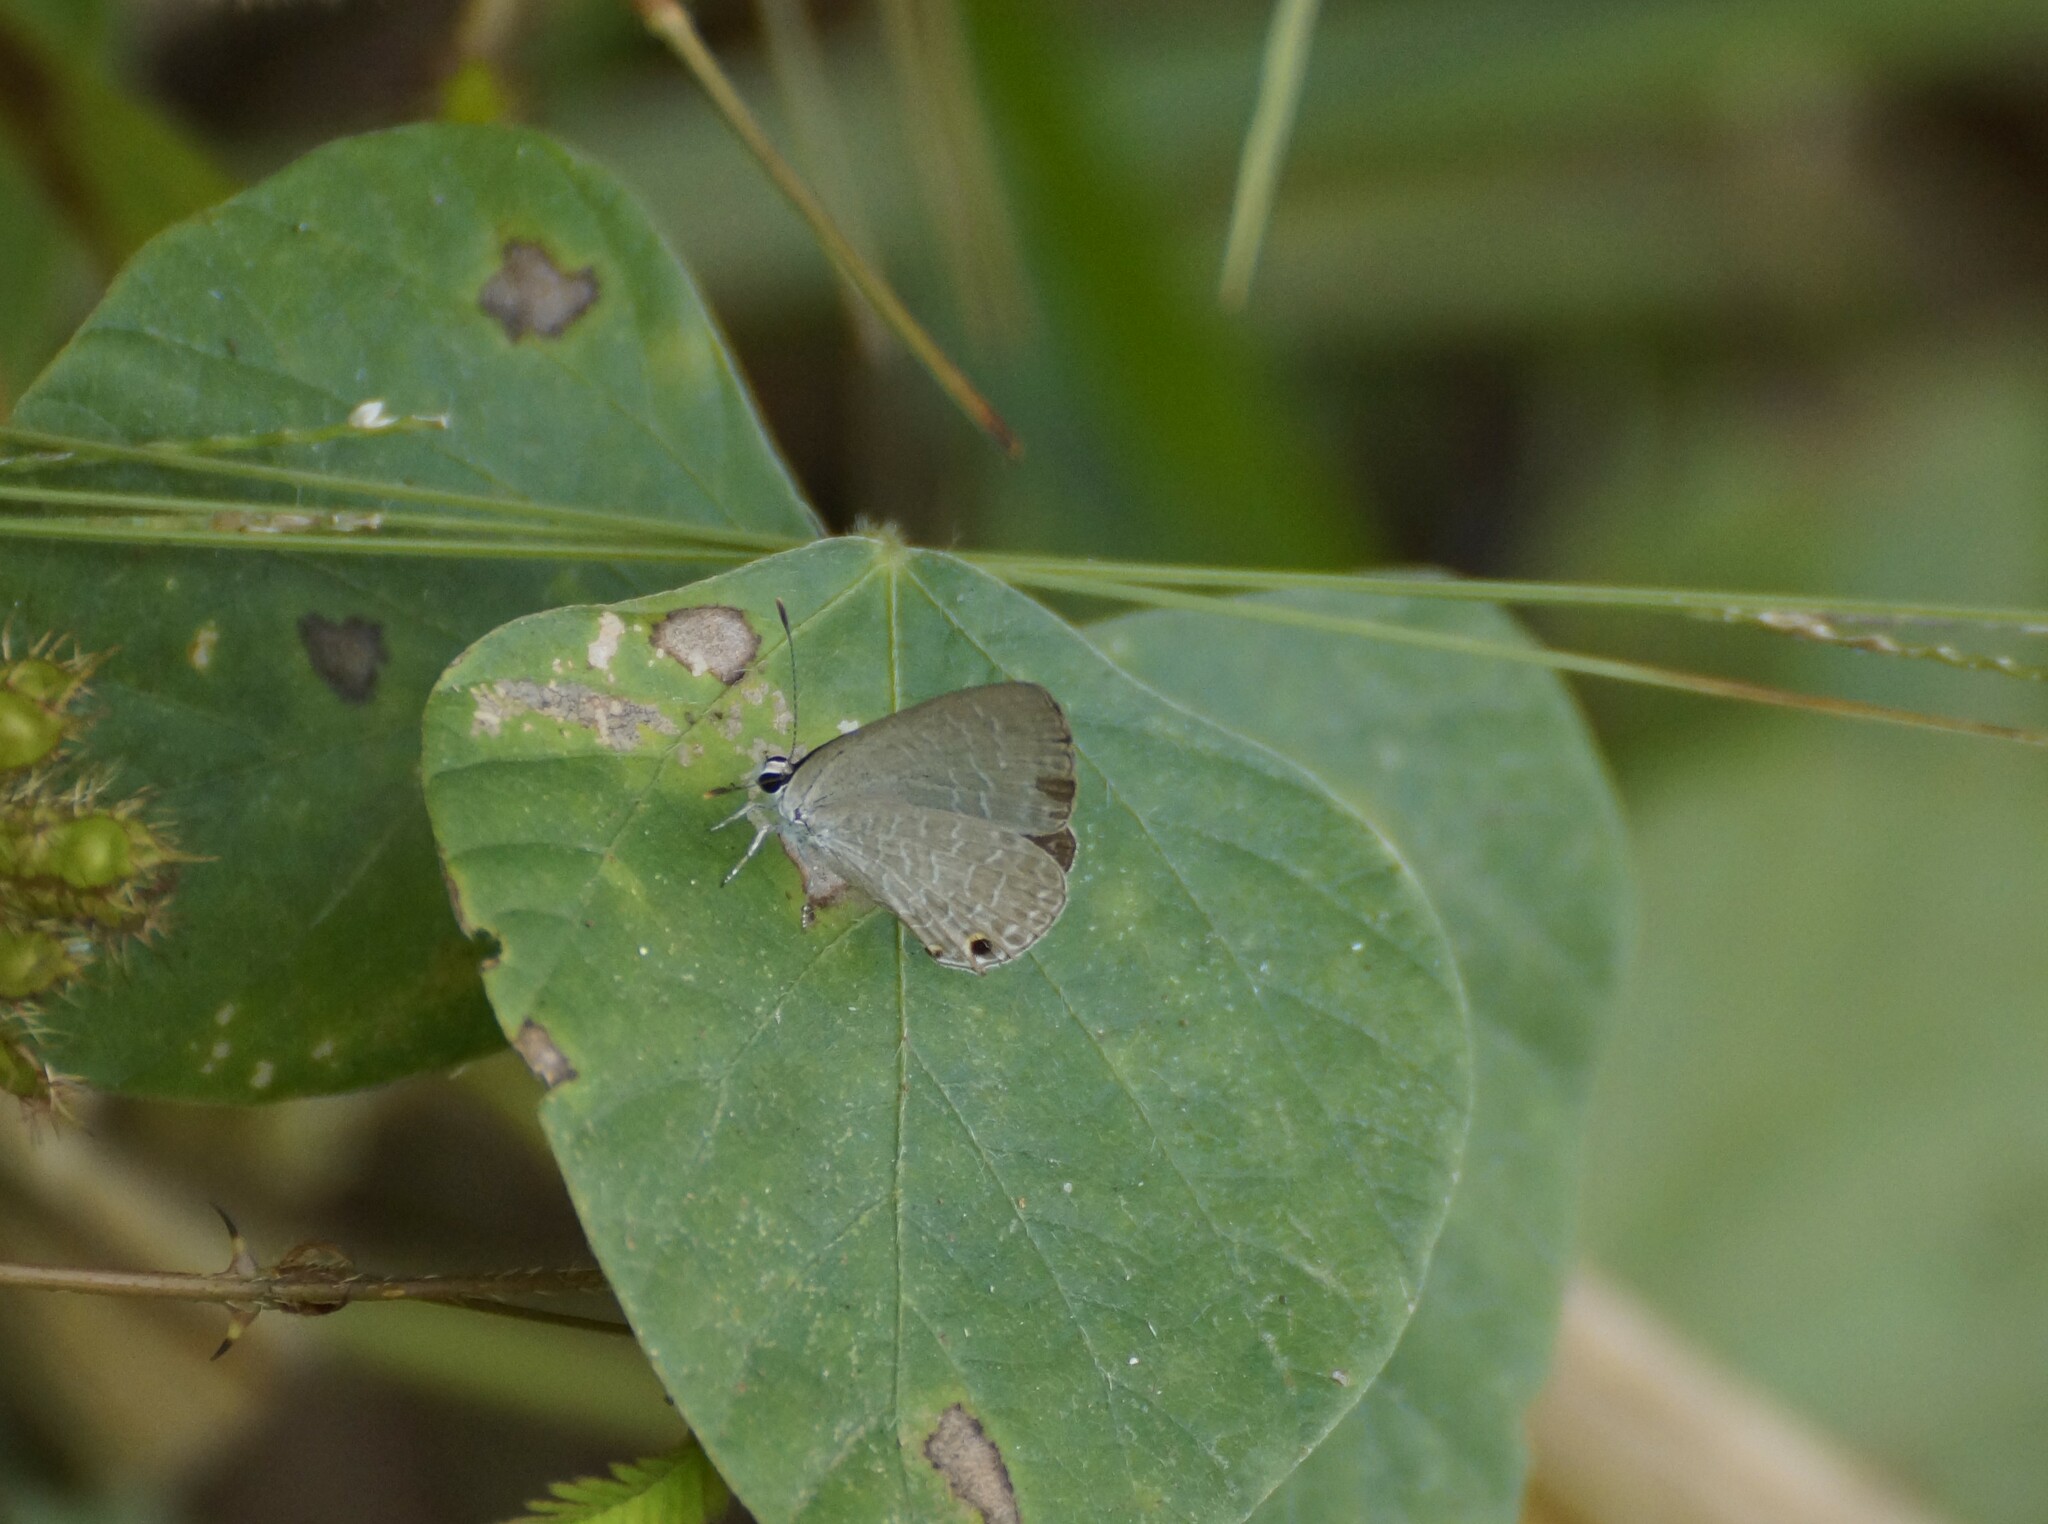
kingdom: Animalia
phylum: Arthropoda
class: Insecta
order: Lepidoptera
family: Lycaenidae
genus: Jamides
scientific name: Jamides phaseli
